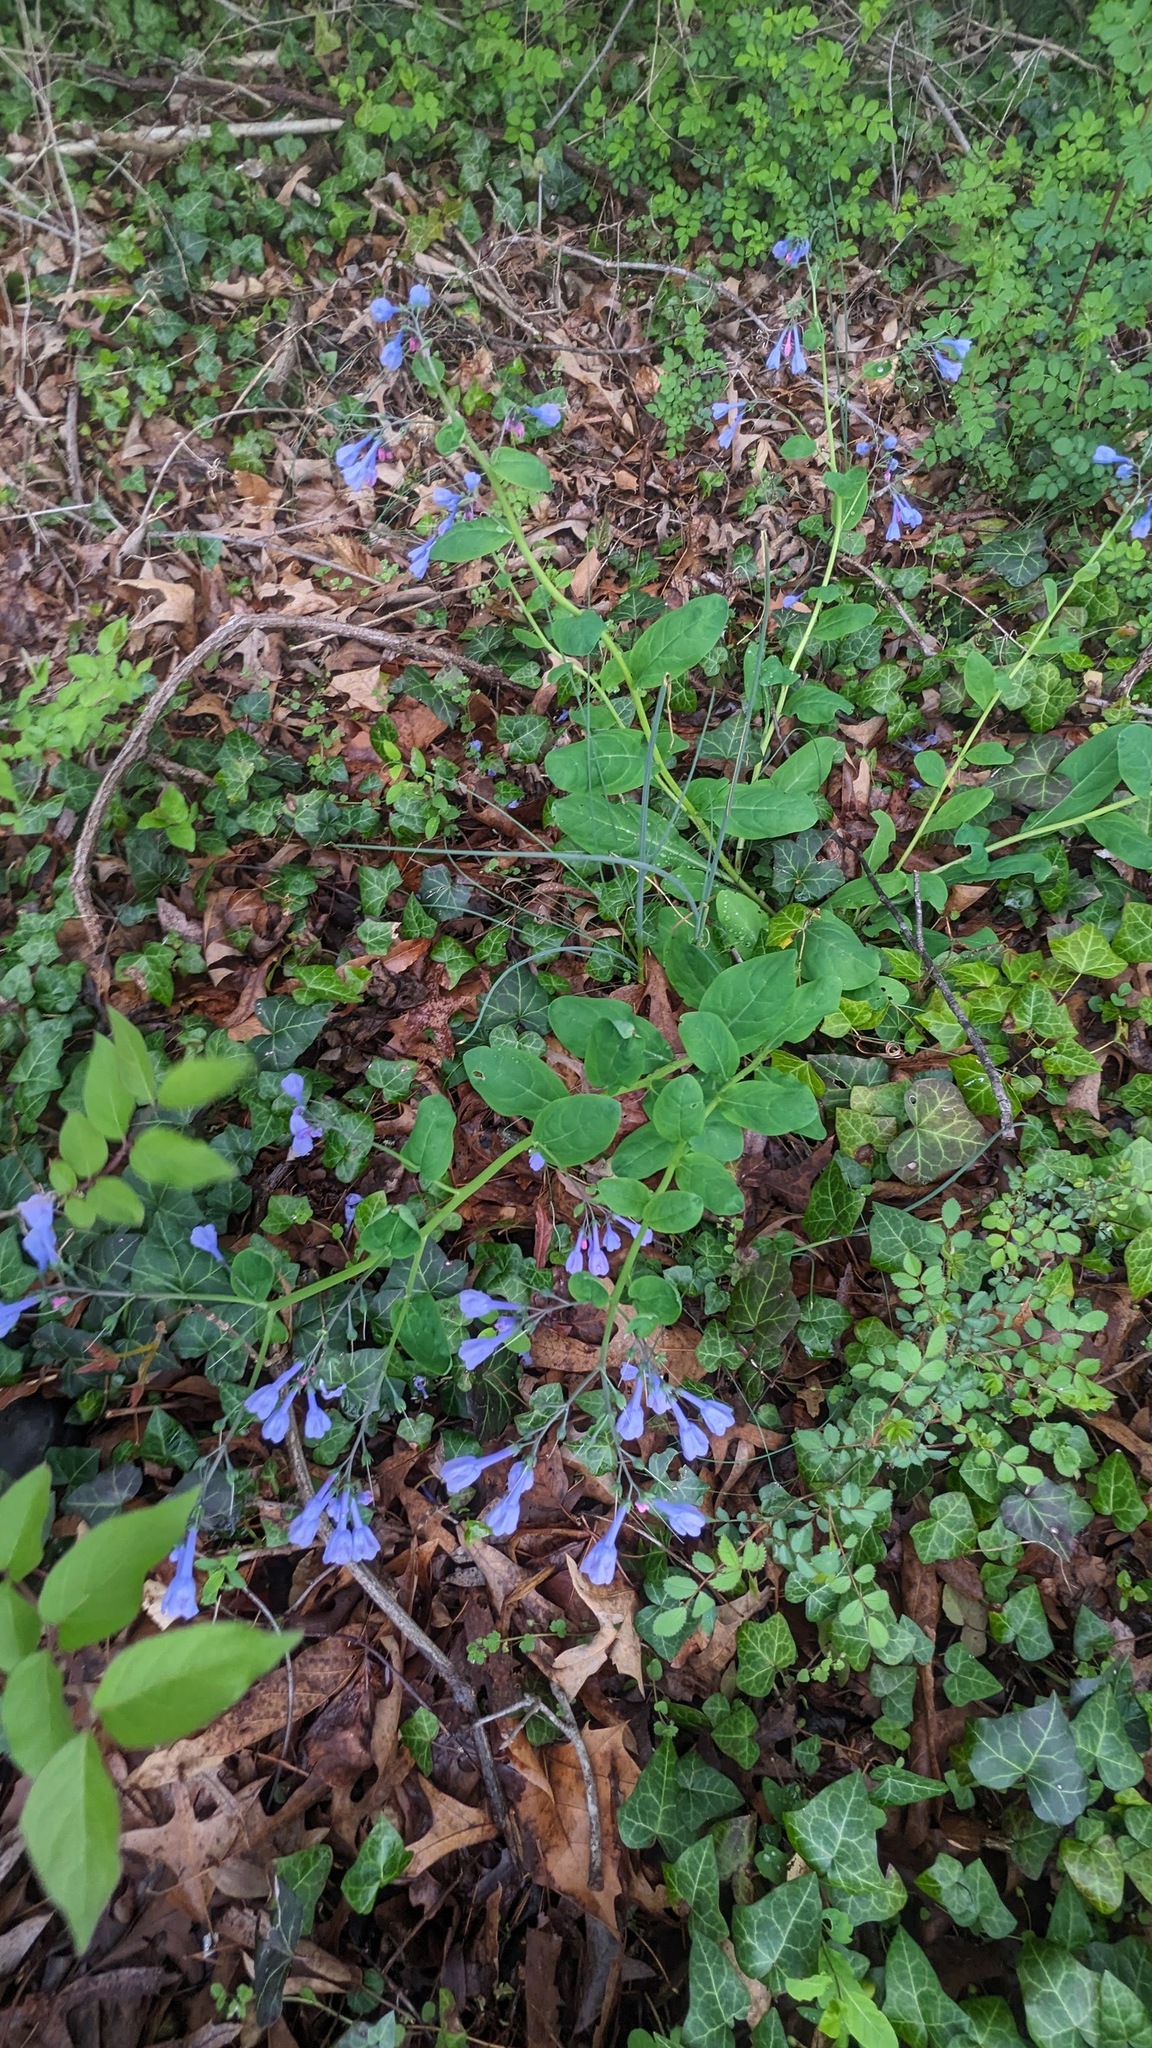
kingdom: Plantae
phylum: Tracheophyta
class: Magnoliopsida
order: Boraginales
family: Boraginaceae
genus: Mertensia
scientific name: Mertensia virginica
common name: Virginia bluebells
